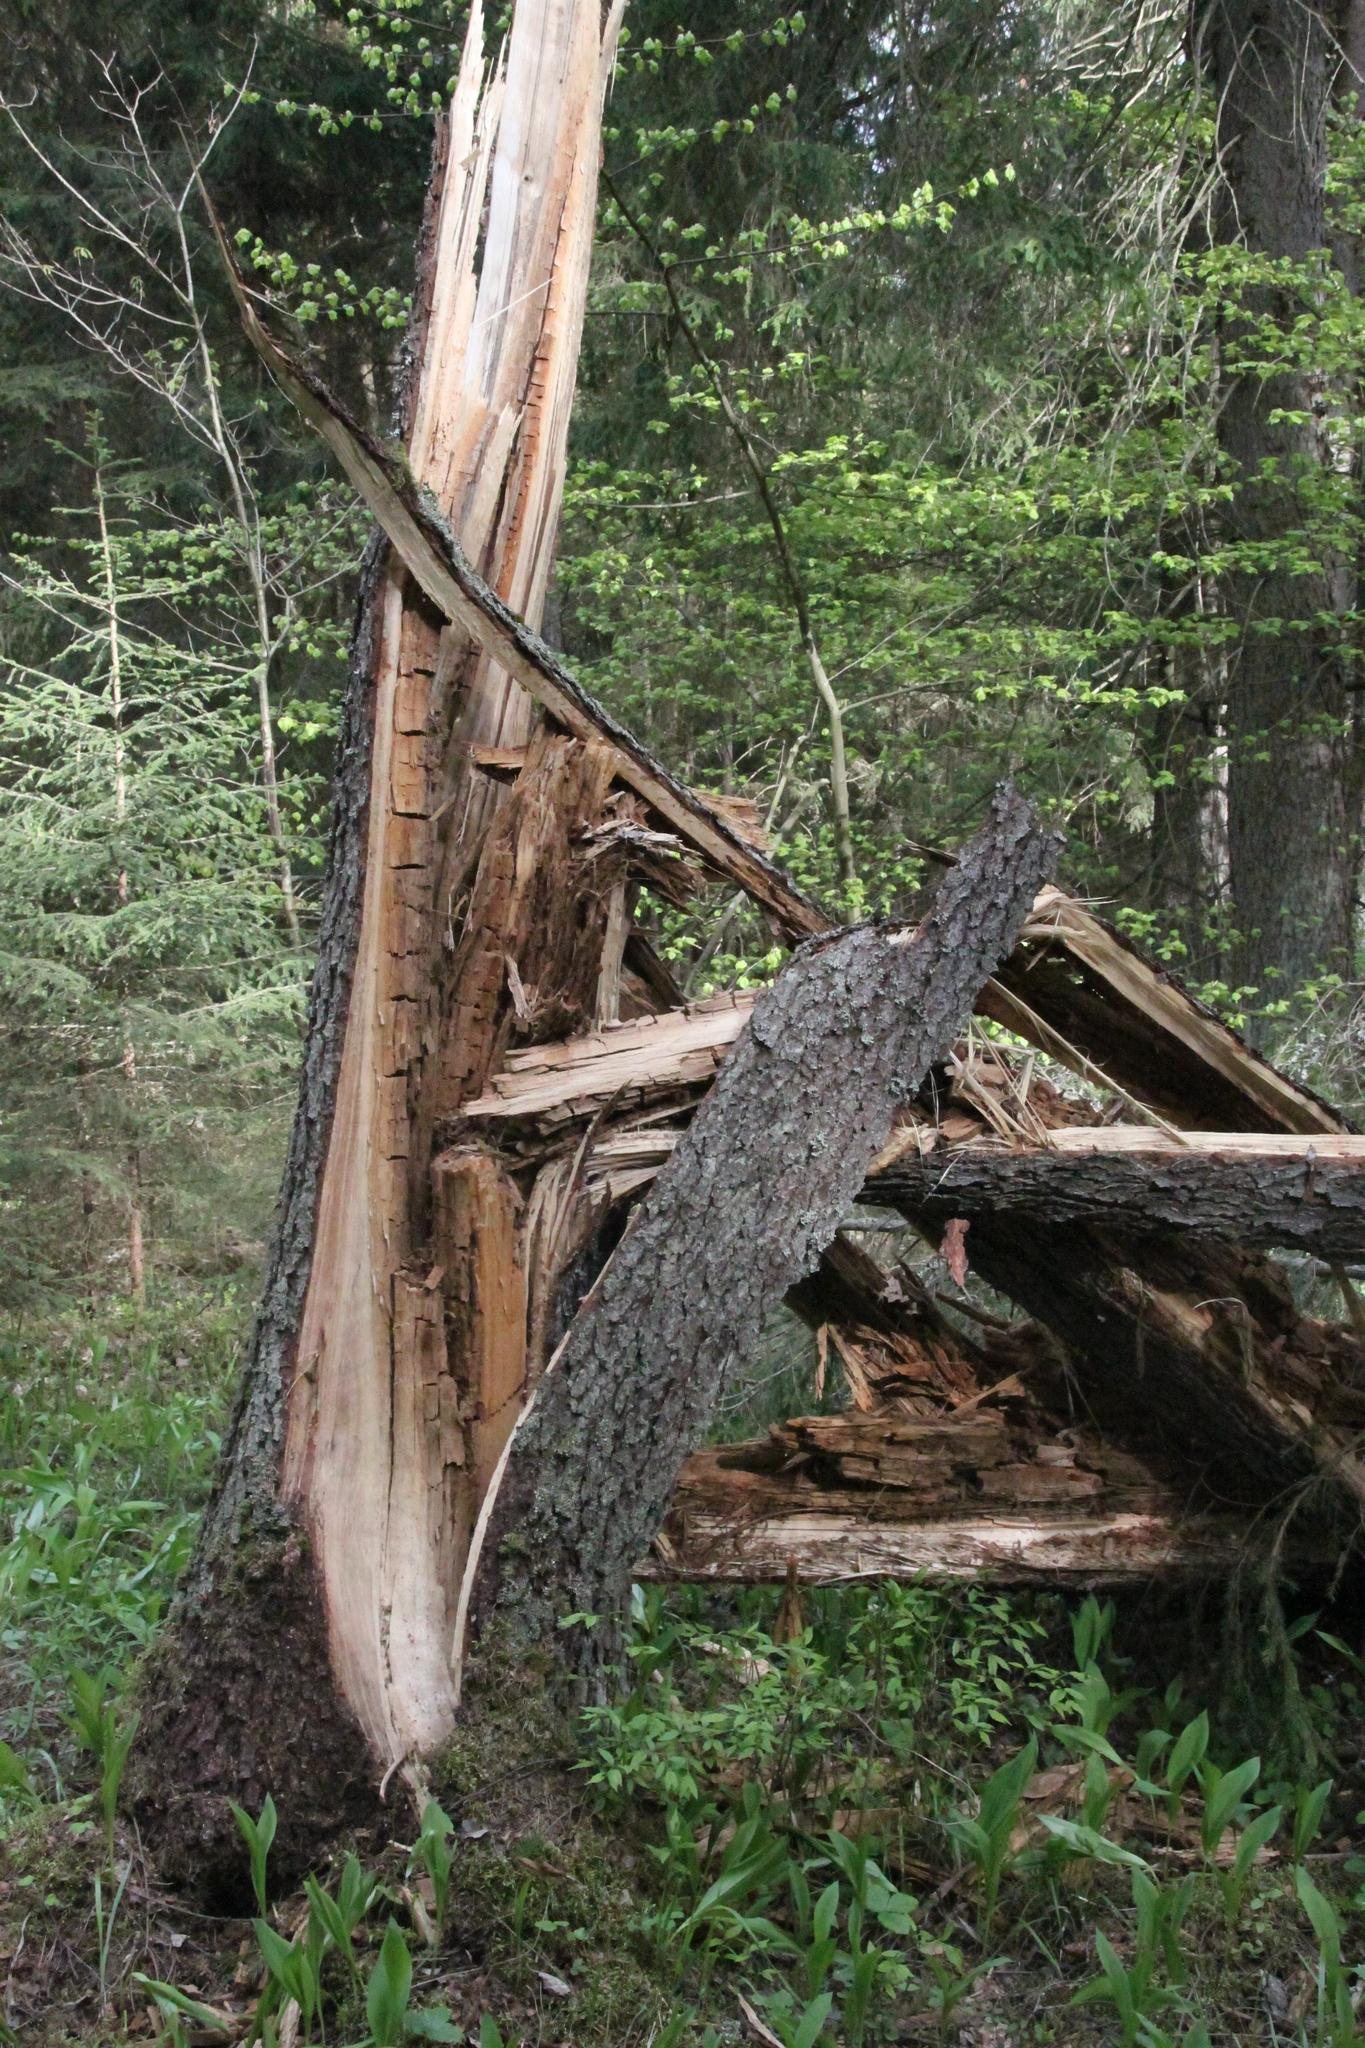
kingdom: Plantae
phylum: Tracheophyta
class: Pinopsida
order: Pinales
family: Pinaceae
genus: Picea
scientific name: Picea abies
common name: Norway spruce
